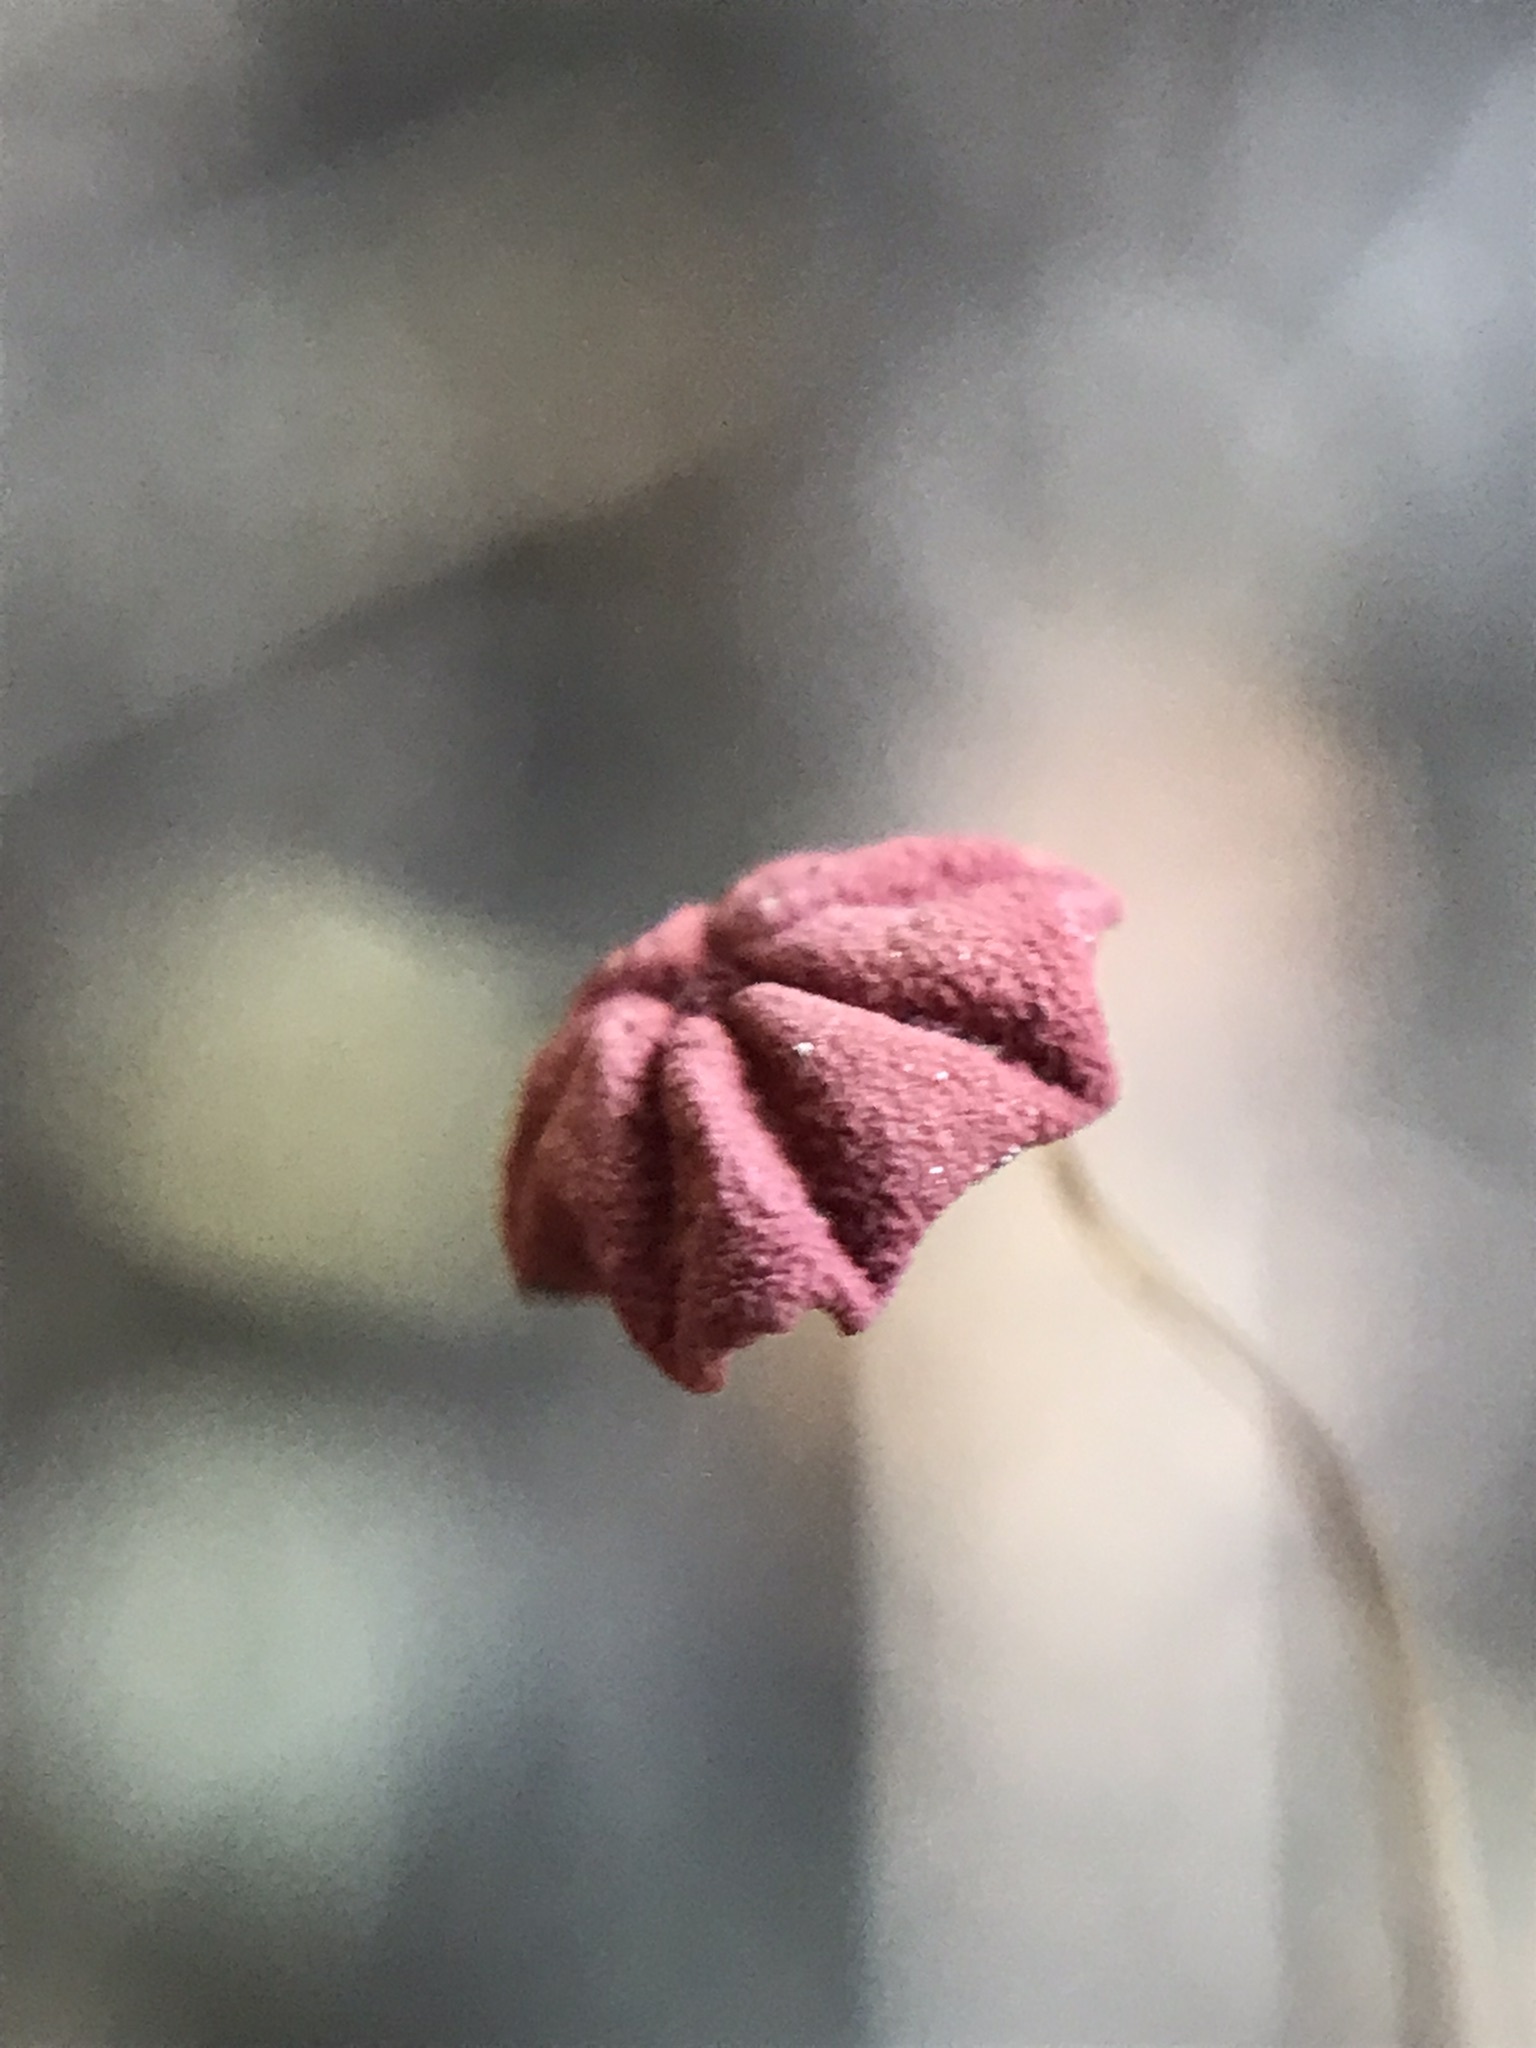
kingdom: Fungi
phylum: Basidiomycota
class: Agaricomycetes
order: Agaricales
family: Marasmiaceae
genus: Marasmius
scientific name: Marasmius haematocephalus
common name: Purple pinwheel
